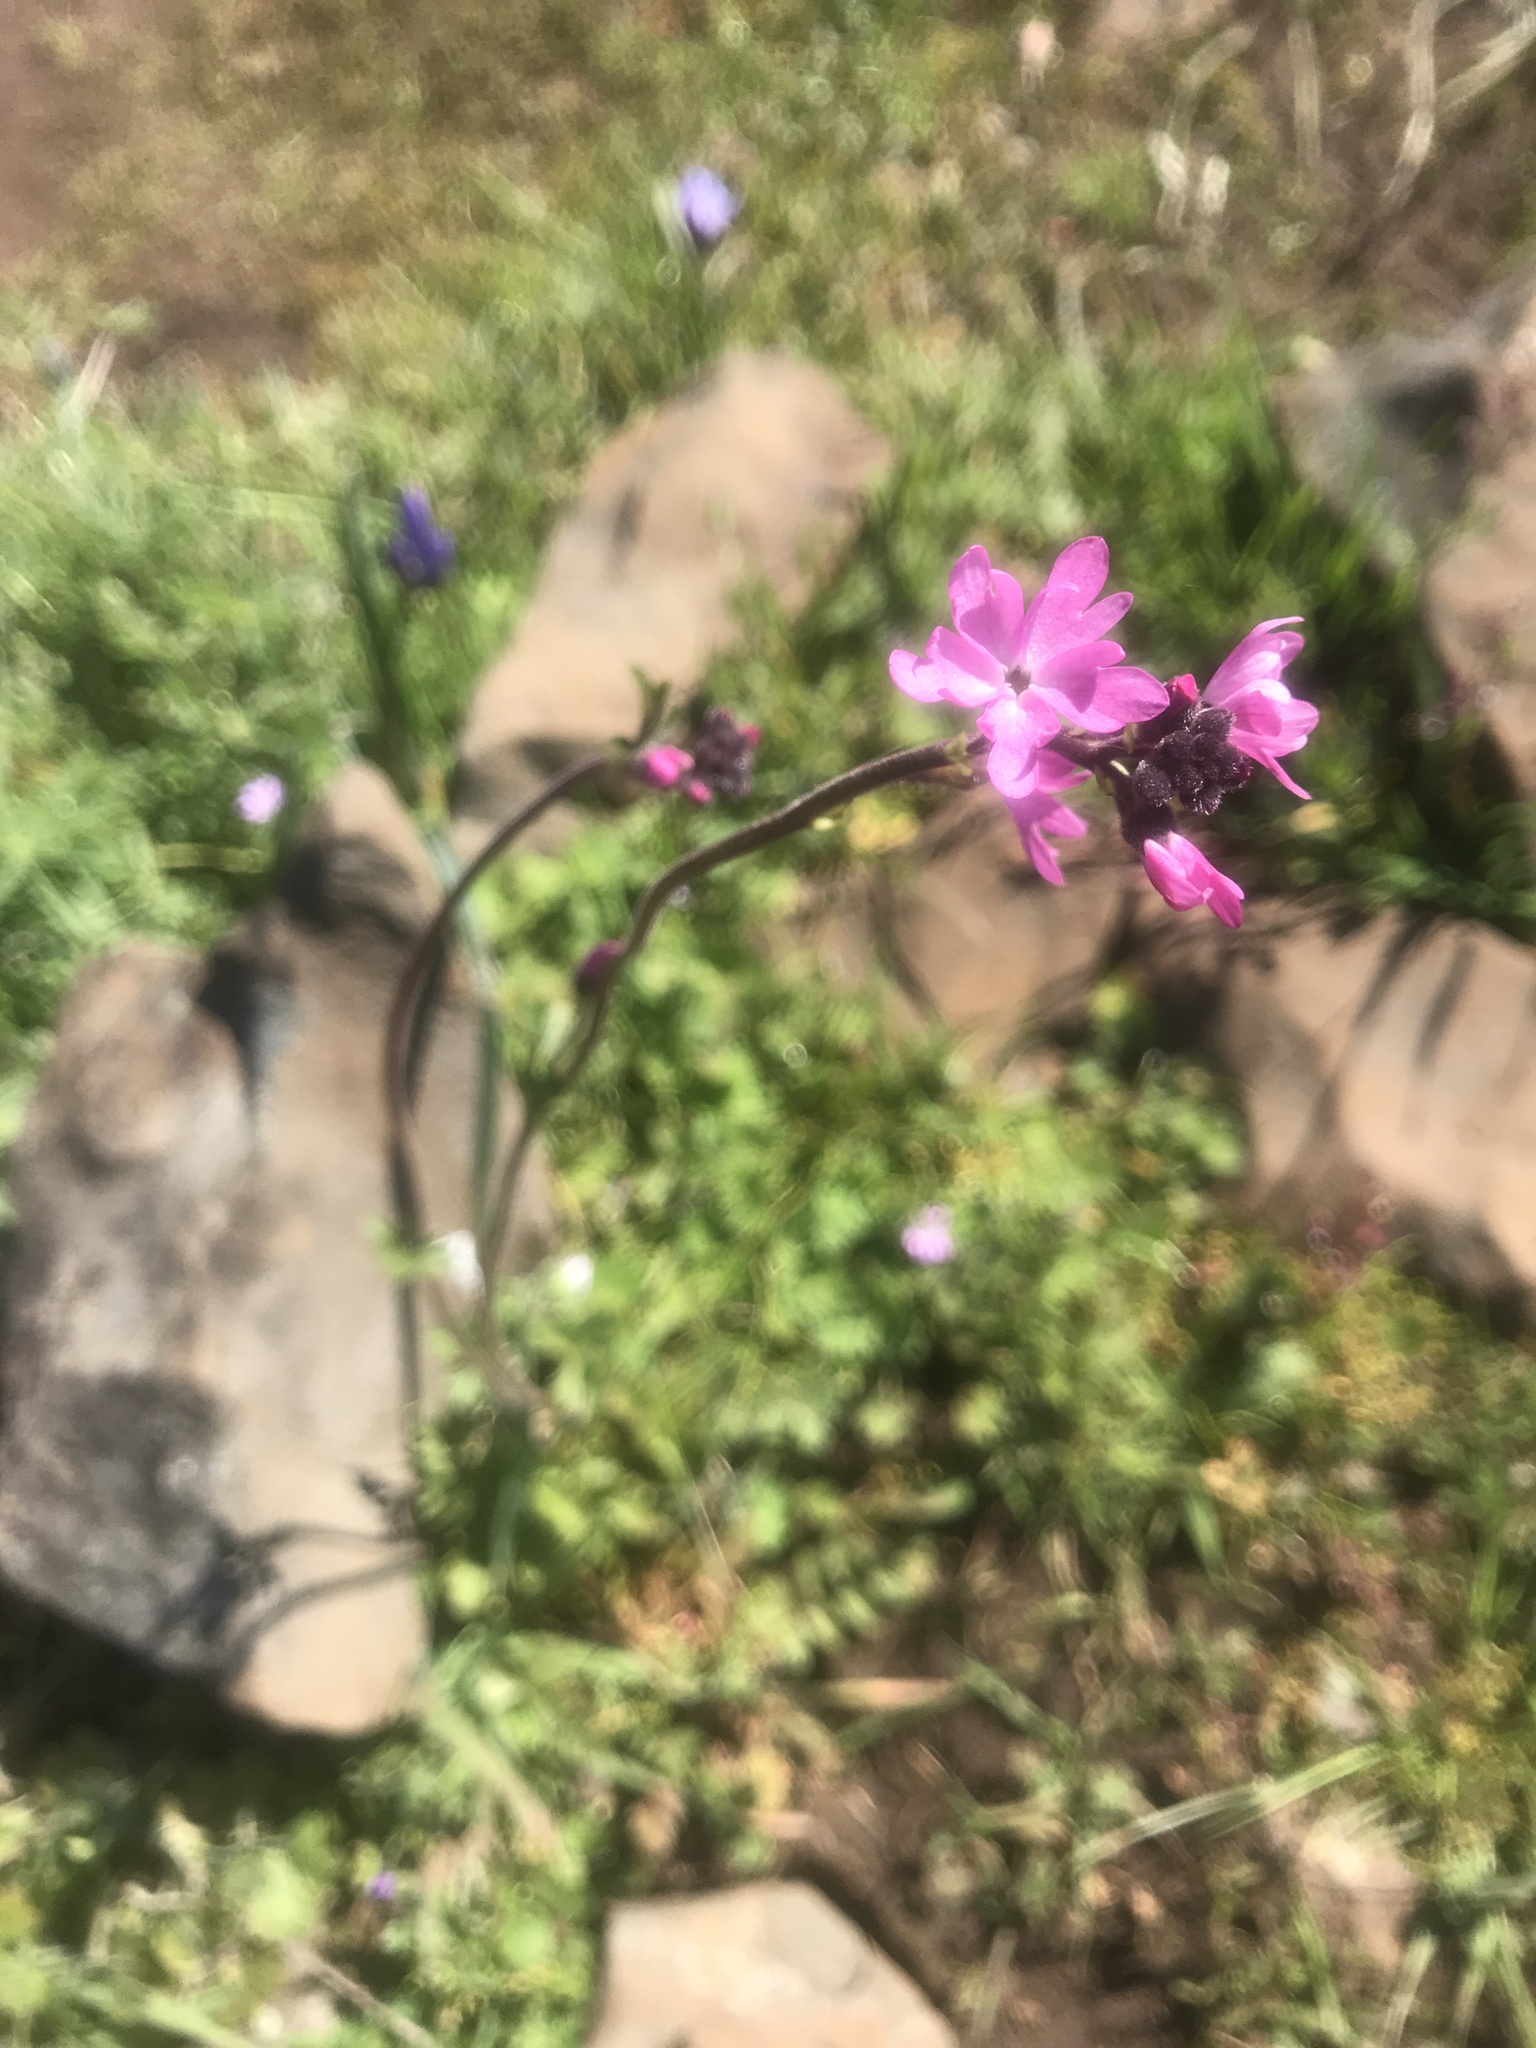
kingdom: Plantae
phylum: Tracheophyta
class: Magnoliopsida
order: Saxifragales
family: Saxifragaceae
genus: Lithophragma
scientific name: Lithophragma parviflorum
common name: Small-flowered fringe-cup
